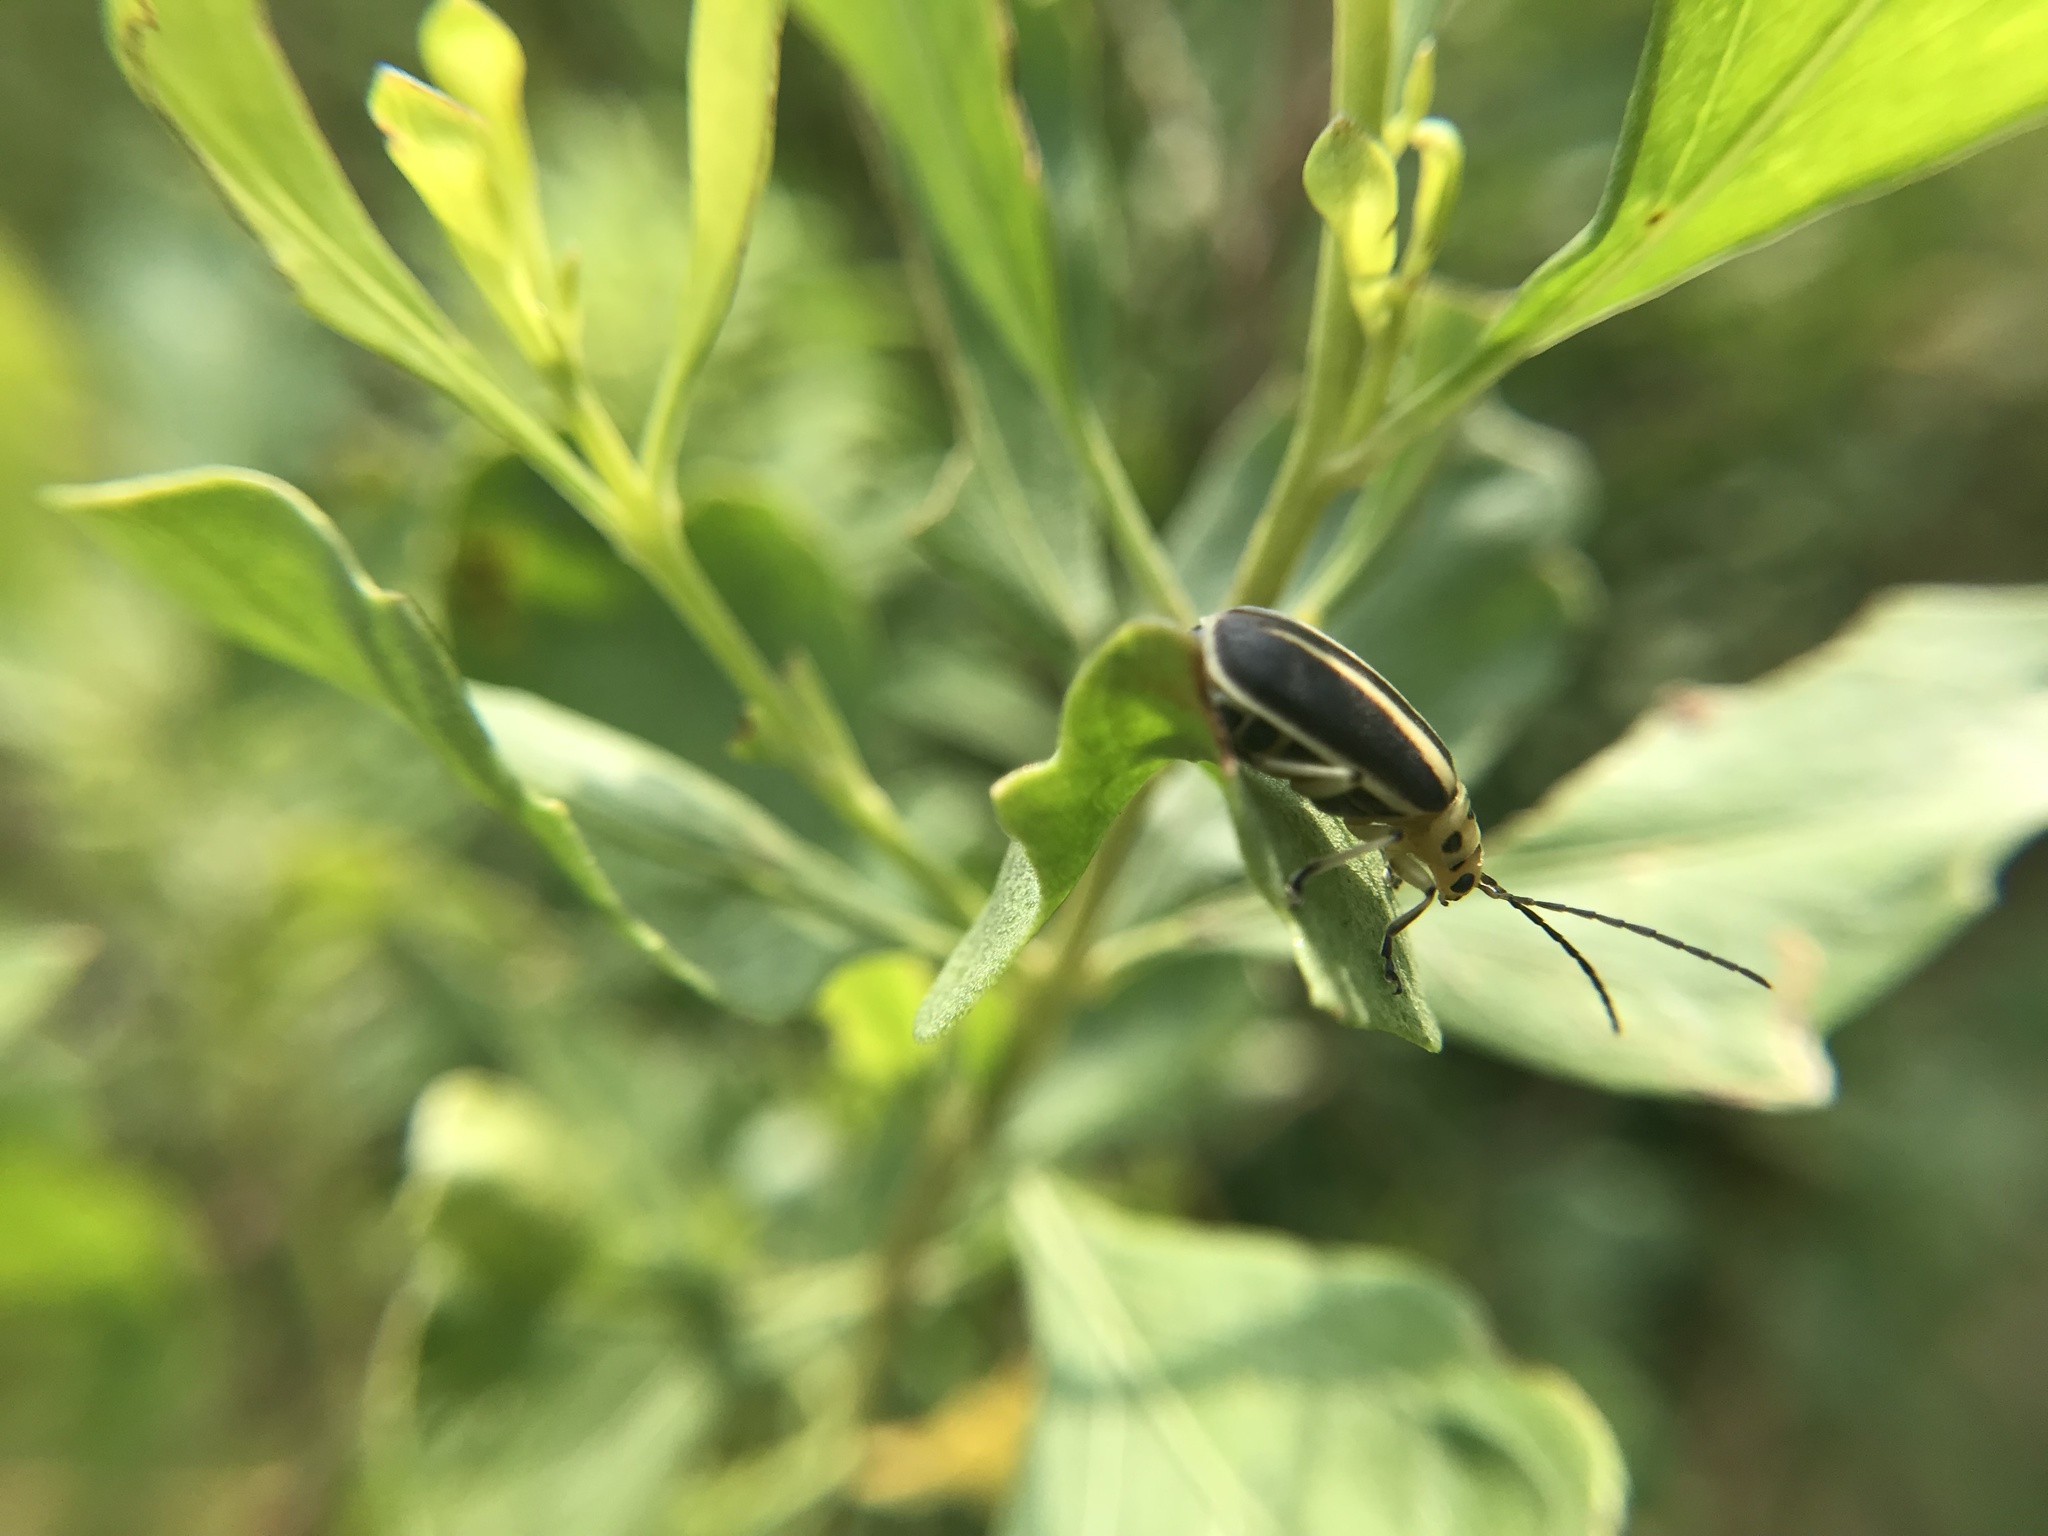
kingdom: Animalia
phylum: Arthropoda
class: Insecta
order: Coleoptera
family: Chrysomelidae
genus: Trirhabda
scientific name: Trirhabda bacharidis
